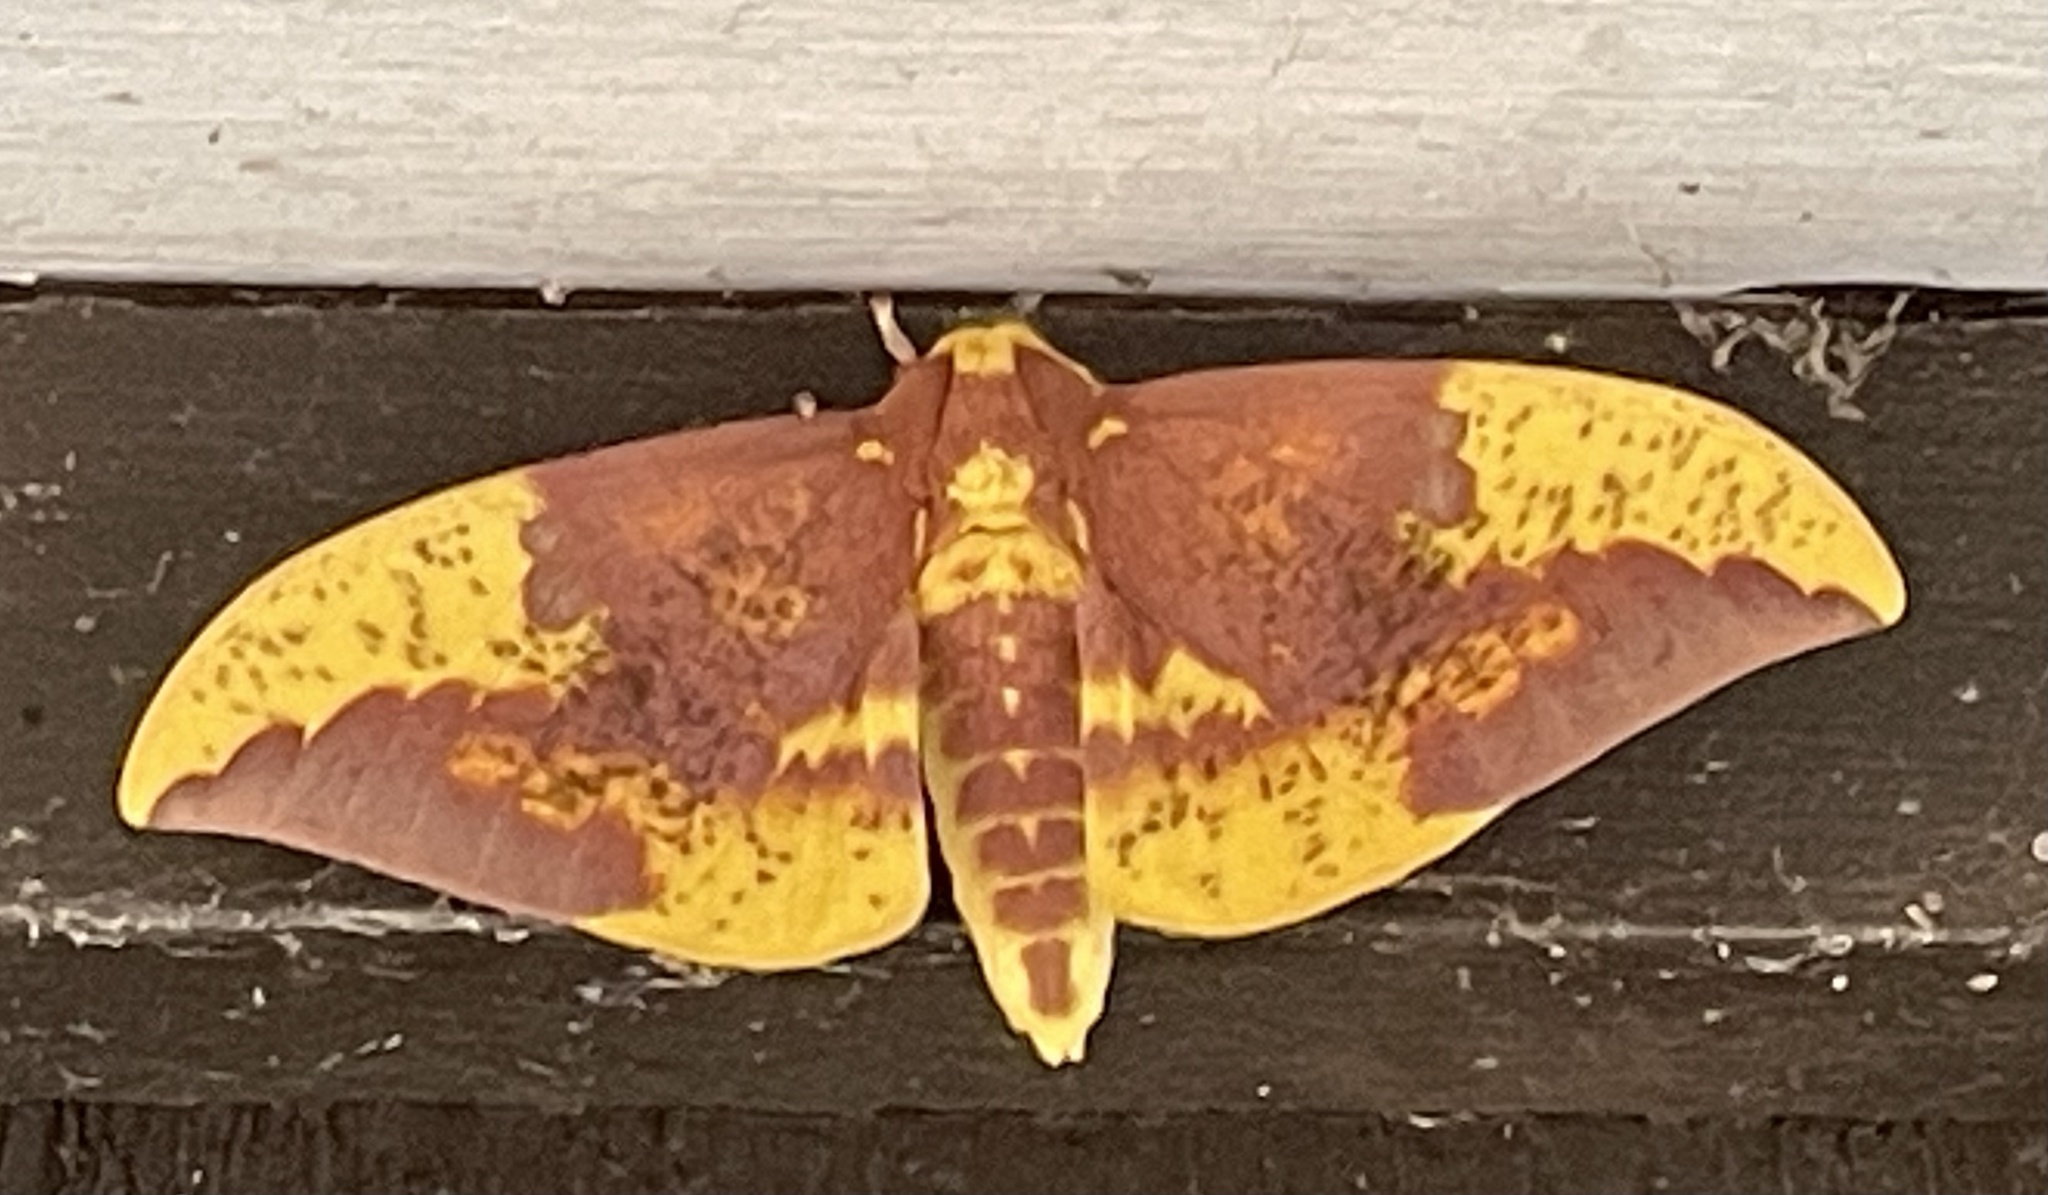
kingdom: Animalia
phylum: Arthropoda
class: Insecta
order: Lepidoptera
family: Saturniidae
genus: Eacles
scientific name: Eacles imperialis
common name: Imperial moth
